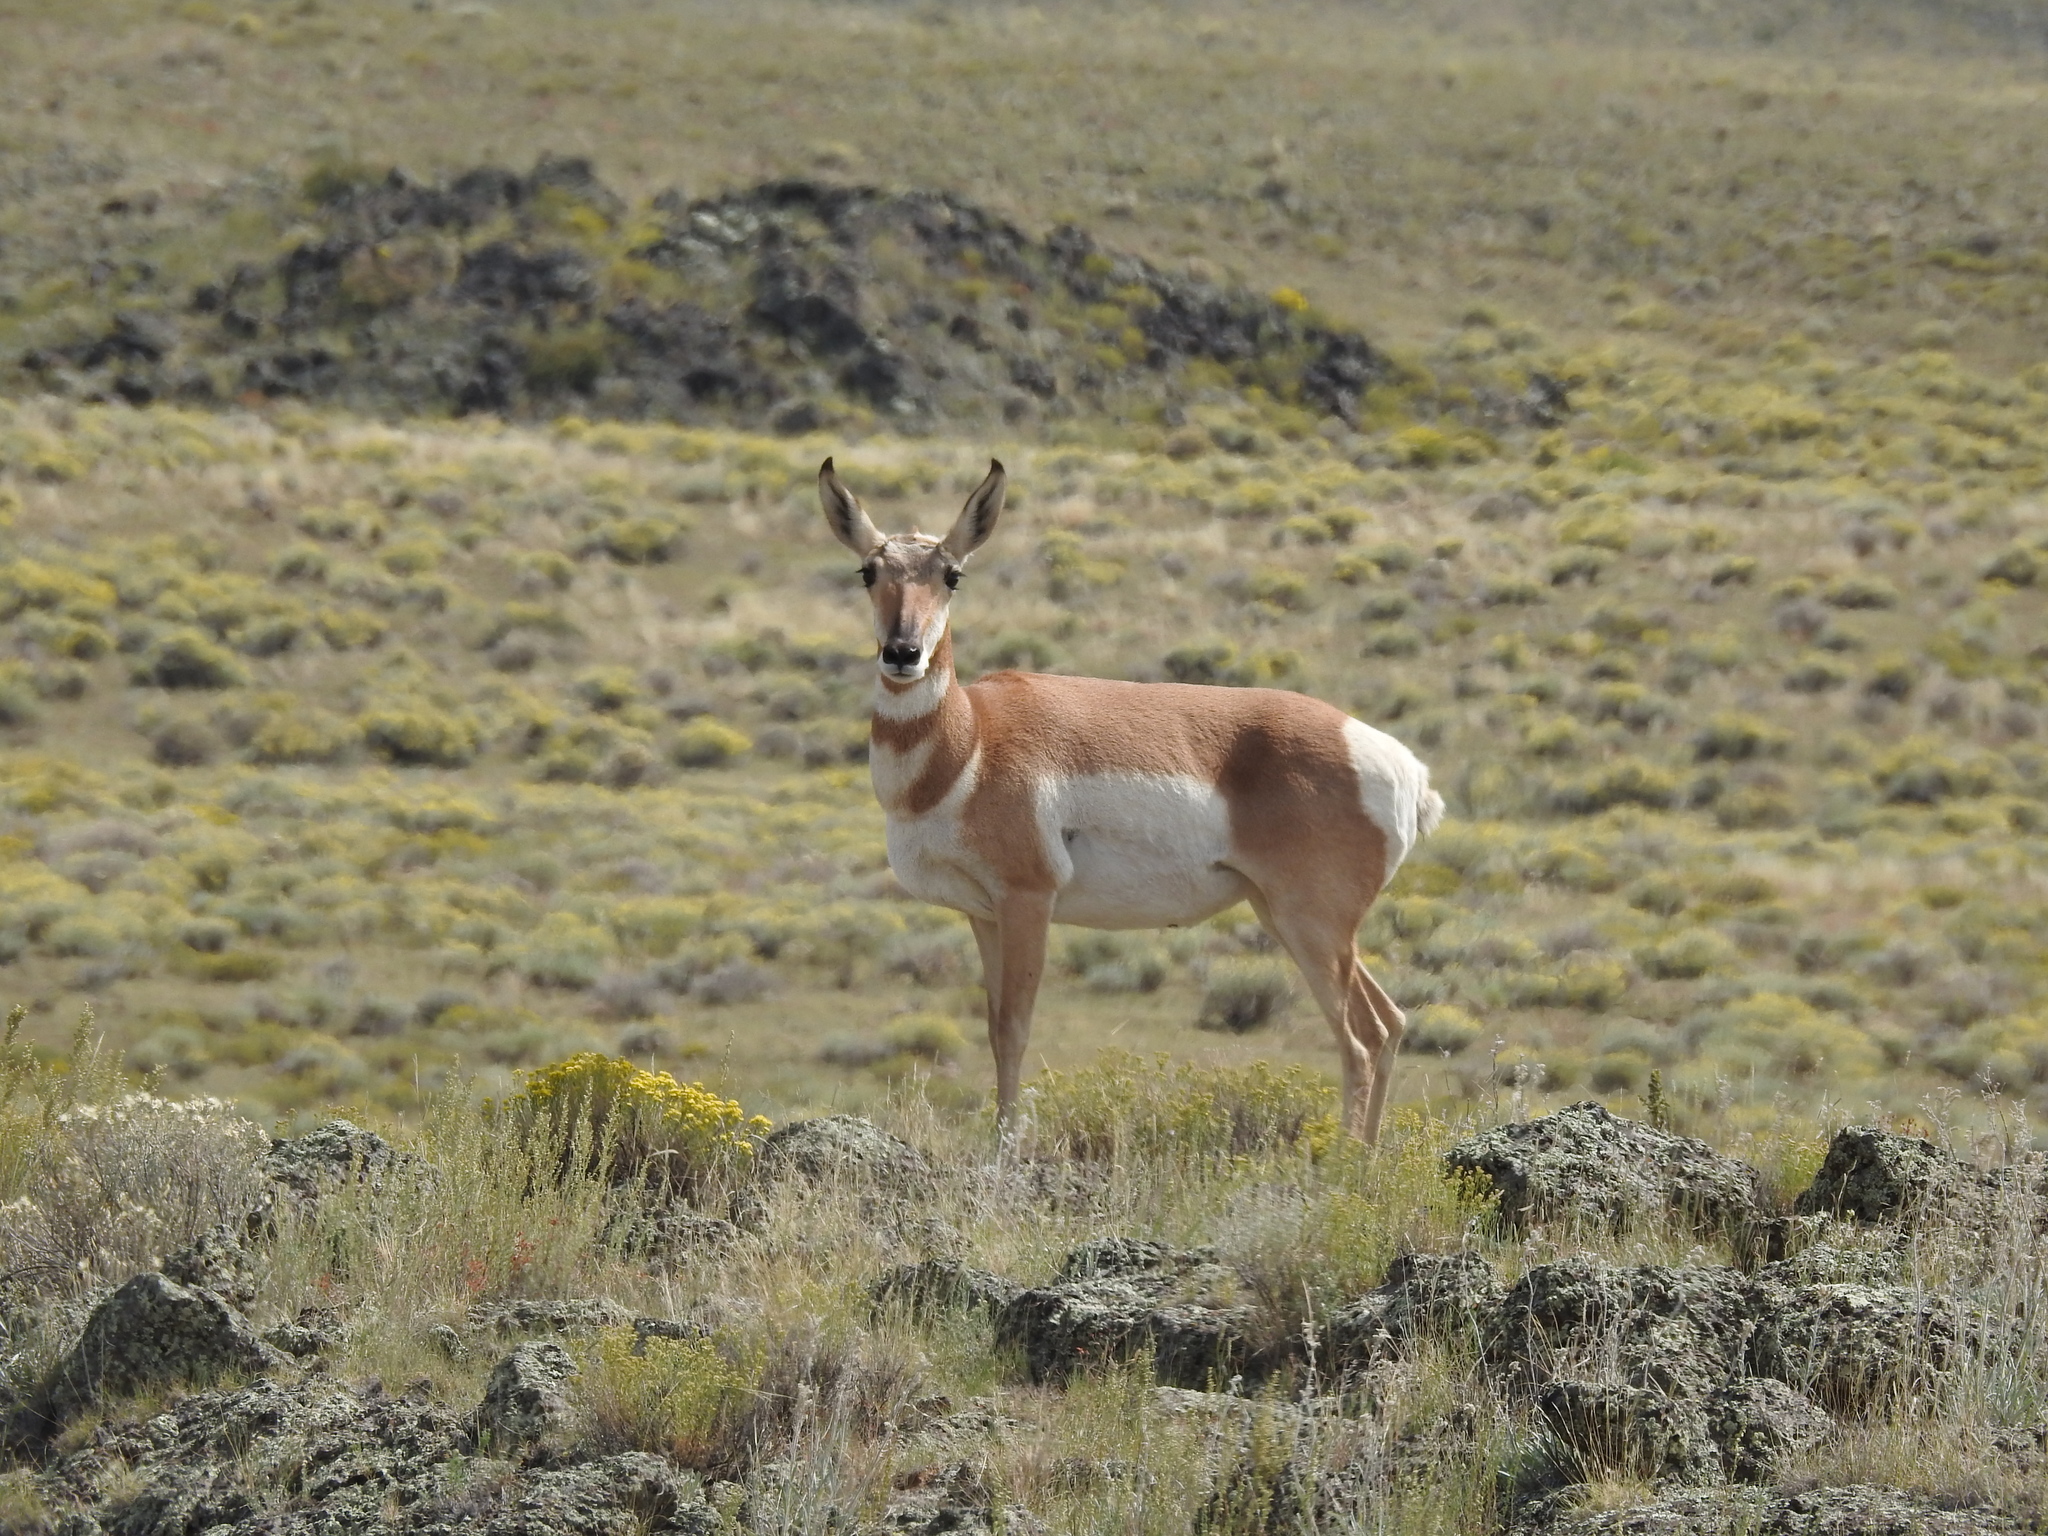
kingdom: Animalia
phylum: Chordata
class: Mammalia
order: Artiodactyla
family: Antilocapridae
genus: Antilocapra
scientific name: Antilocapra americana
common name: Pronghorn
